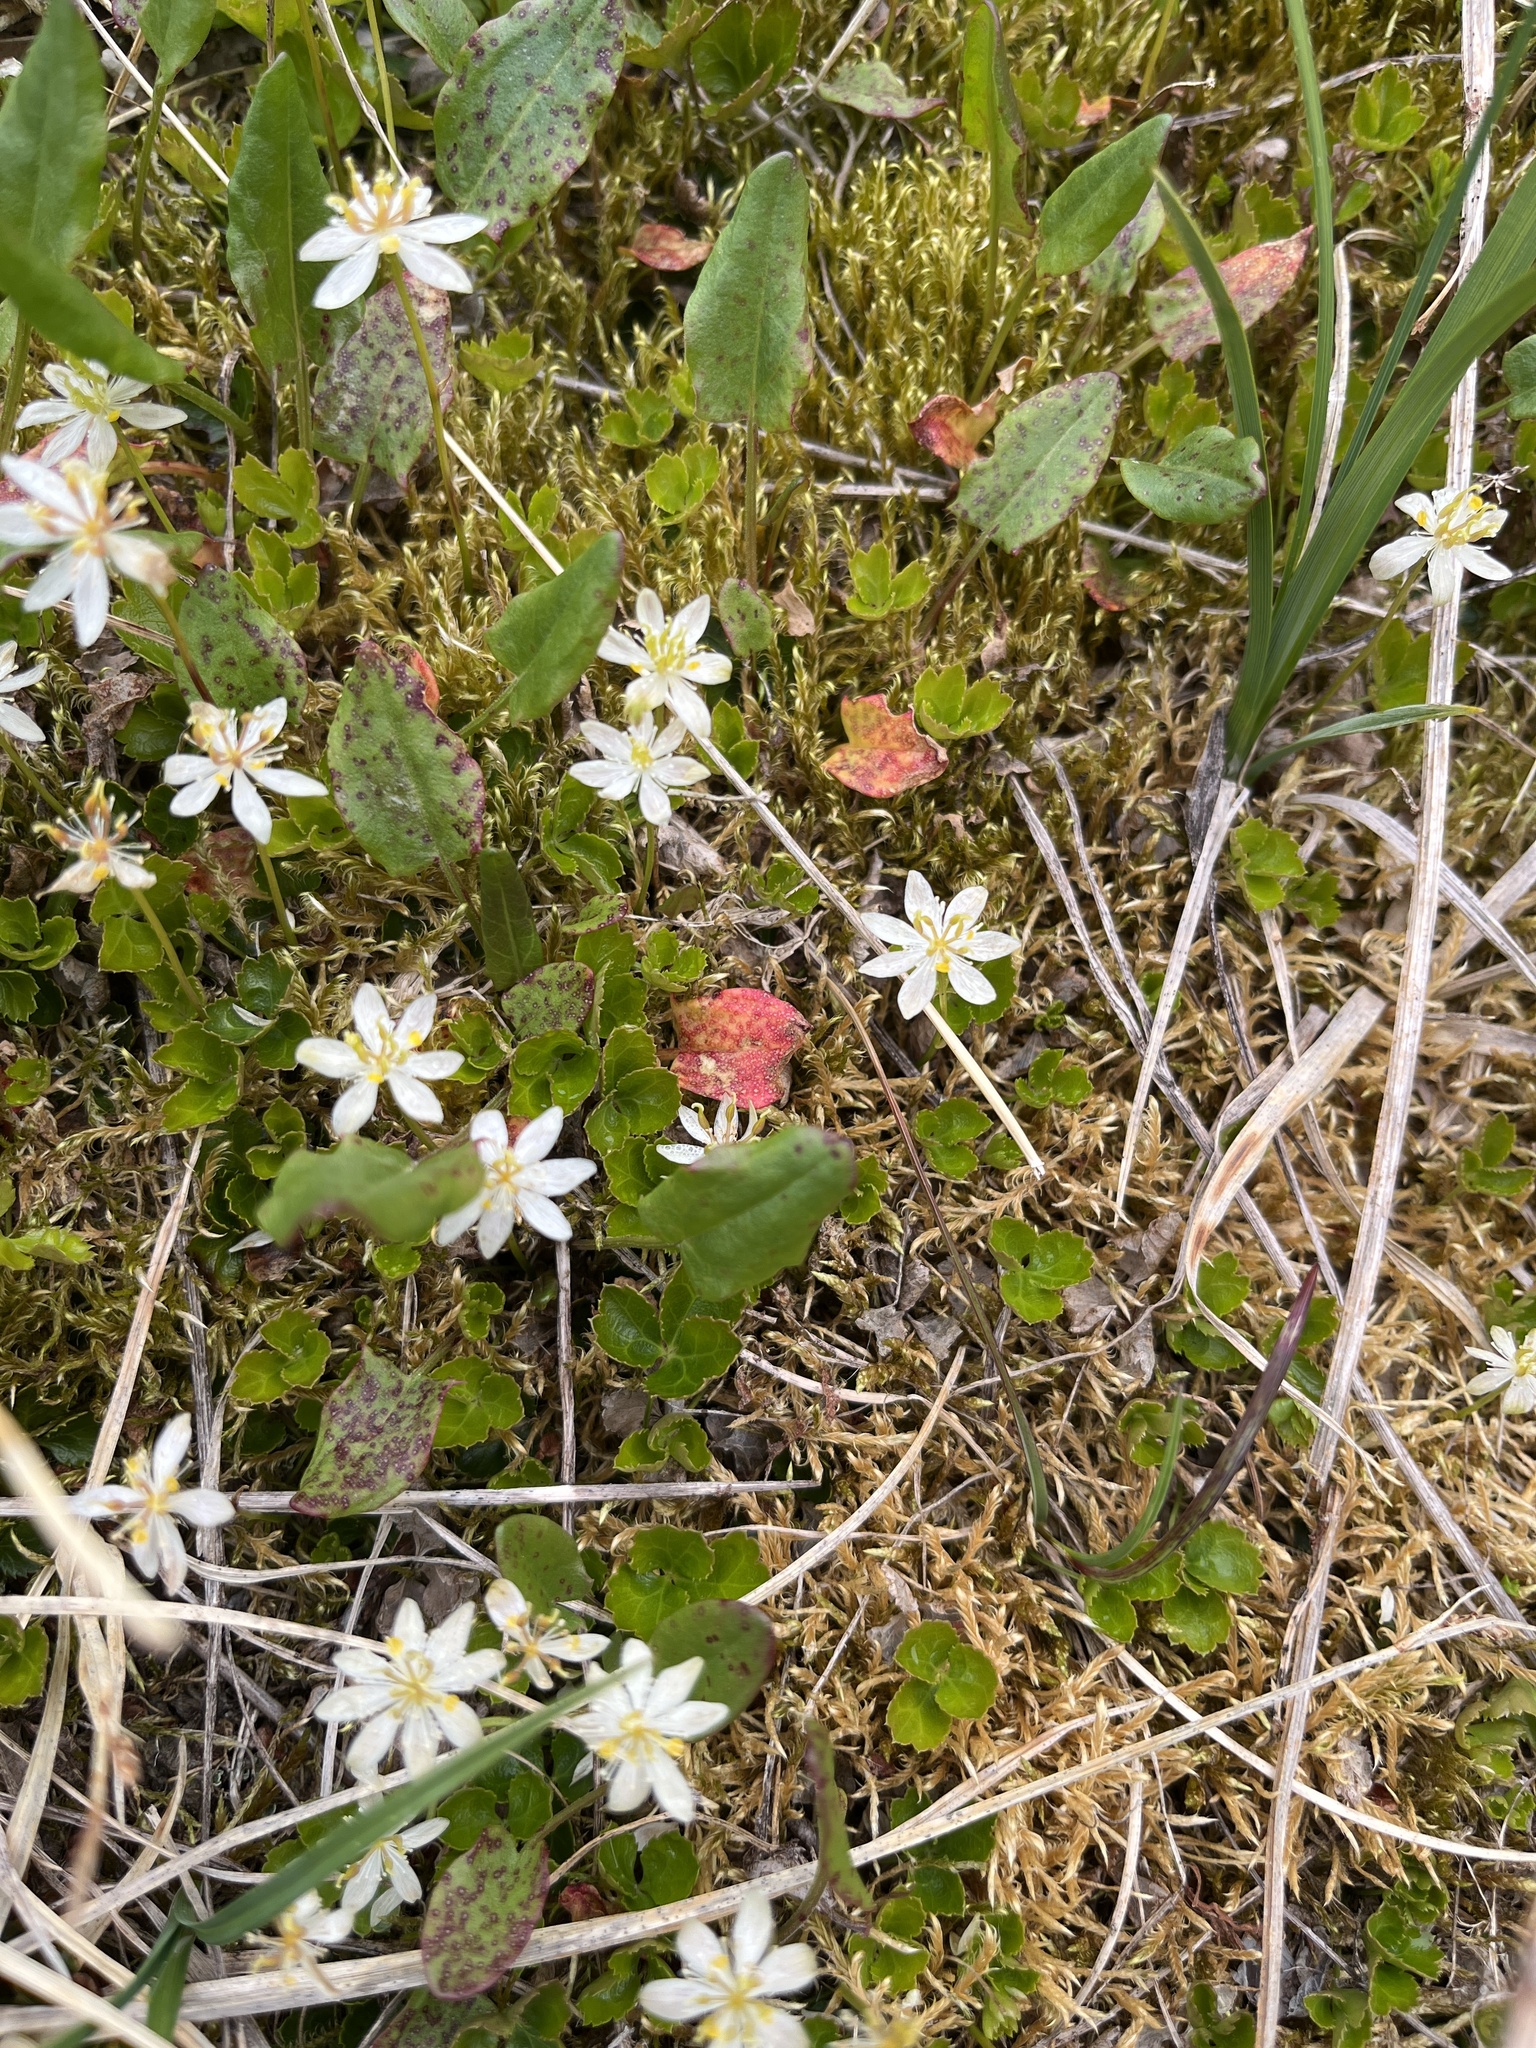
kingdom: Plantae
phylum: Tracheophyta
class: Magnoliopsida
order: Ranunculales
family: Ranunculaceae
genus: Coptis
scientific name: Coptis trifolia
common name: Canker-root
